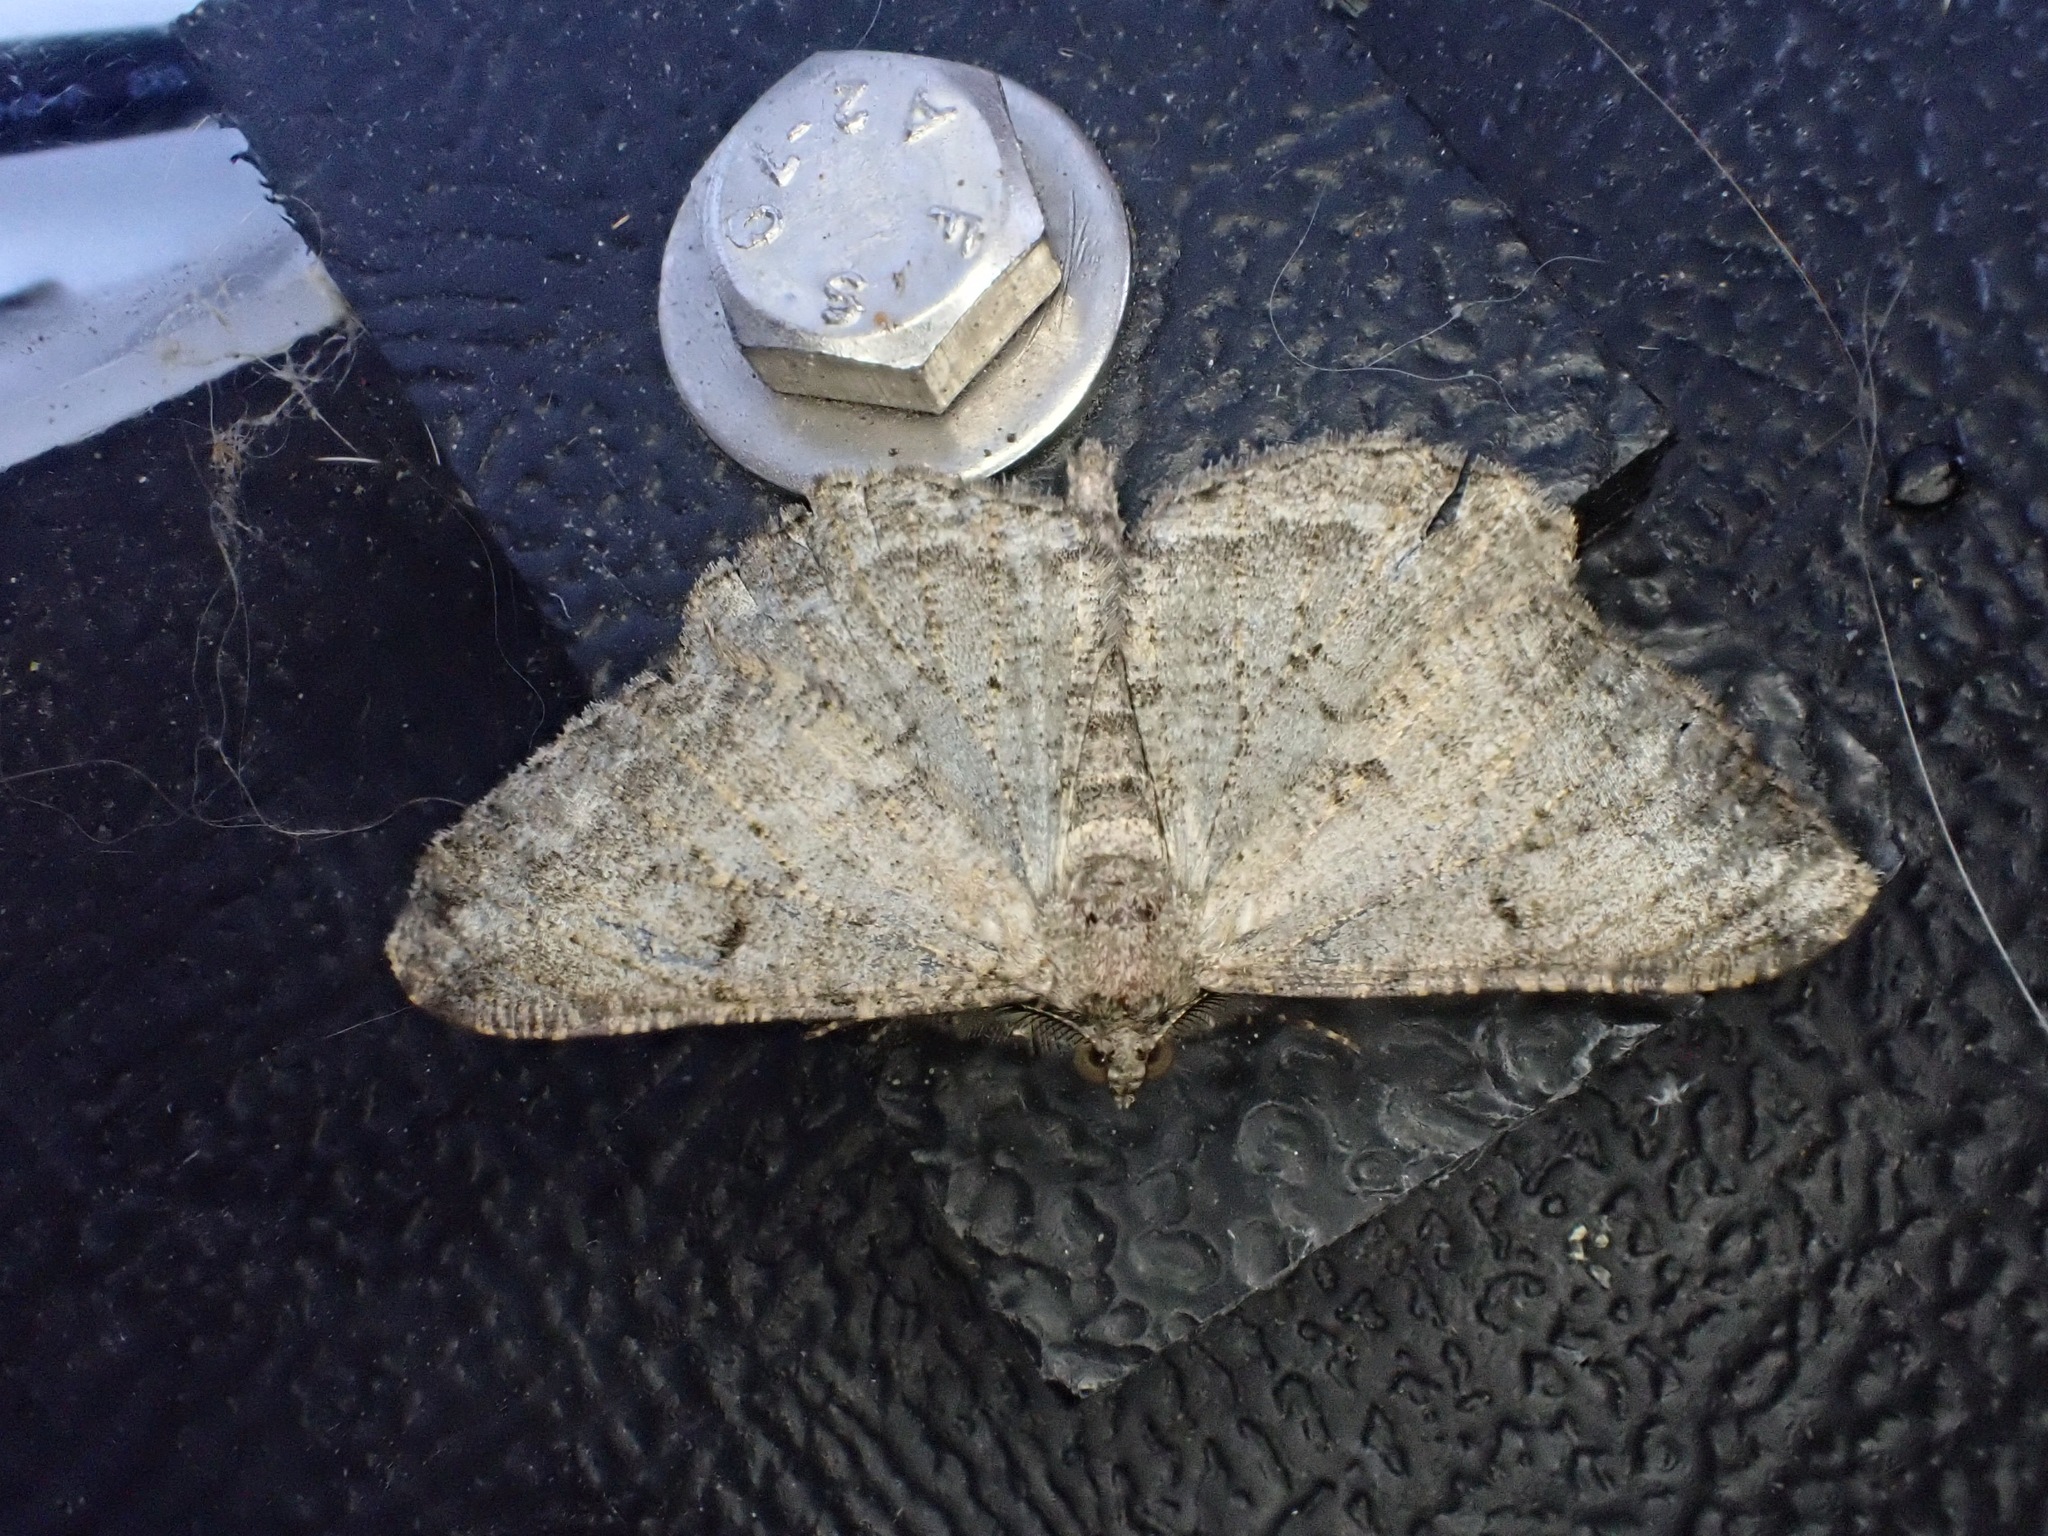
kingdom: Animalia
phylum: Arthropoda
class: Insecta
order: Lepidoptera
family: Geometridae
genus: Peribatodes
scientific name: Peribatodes rhomboidaria
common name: Willow beauty
